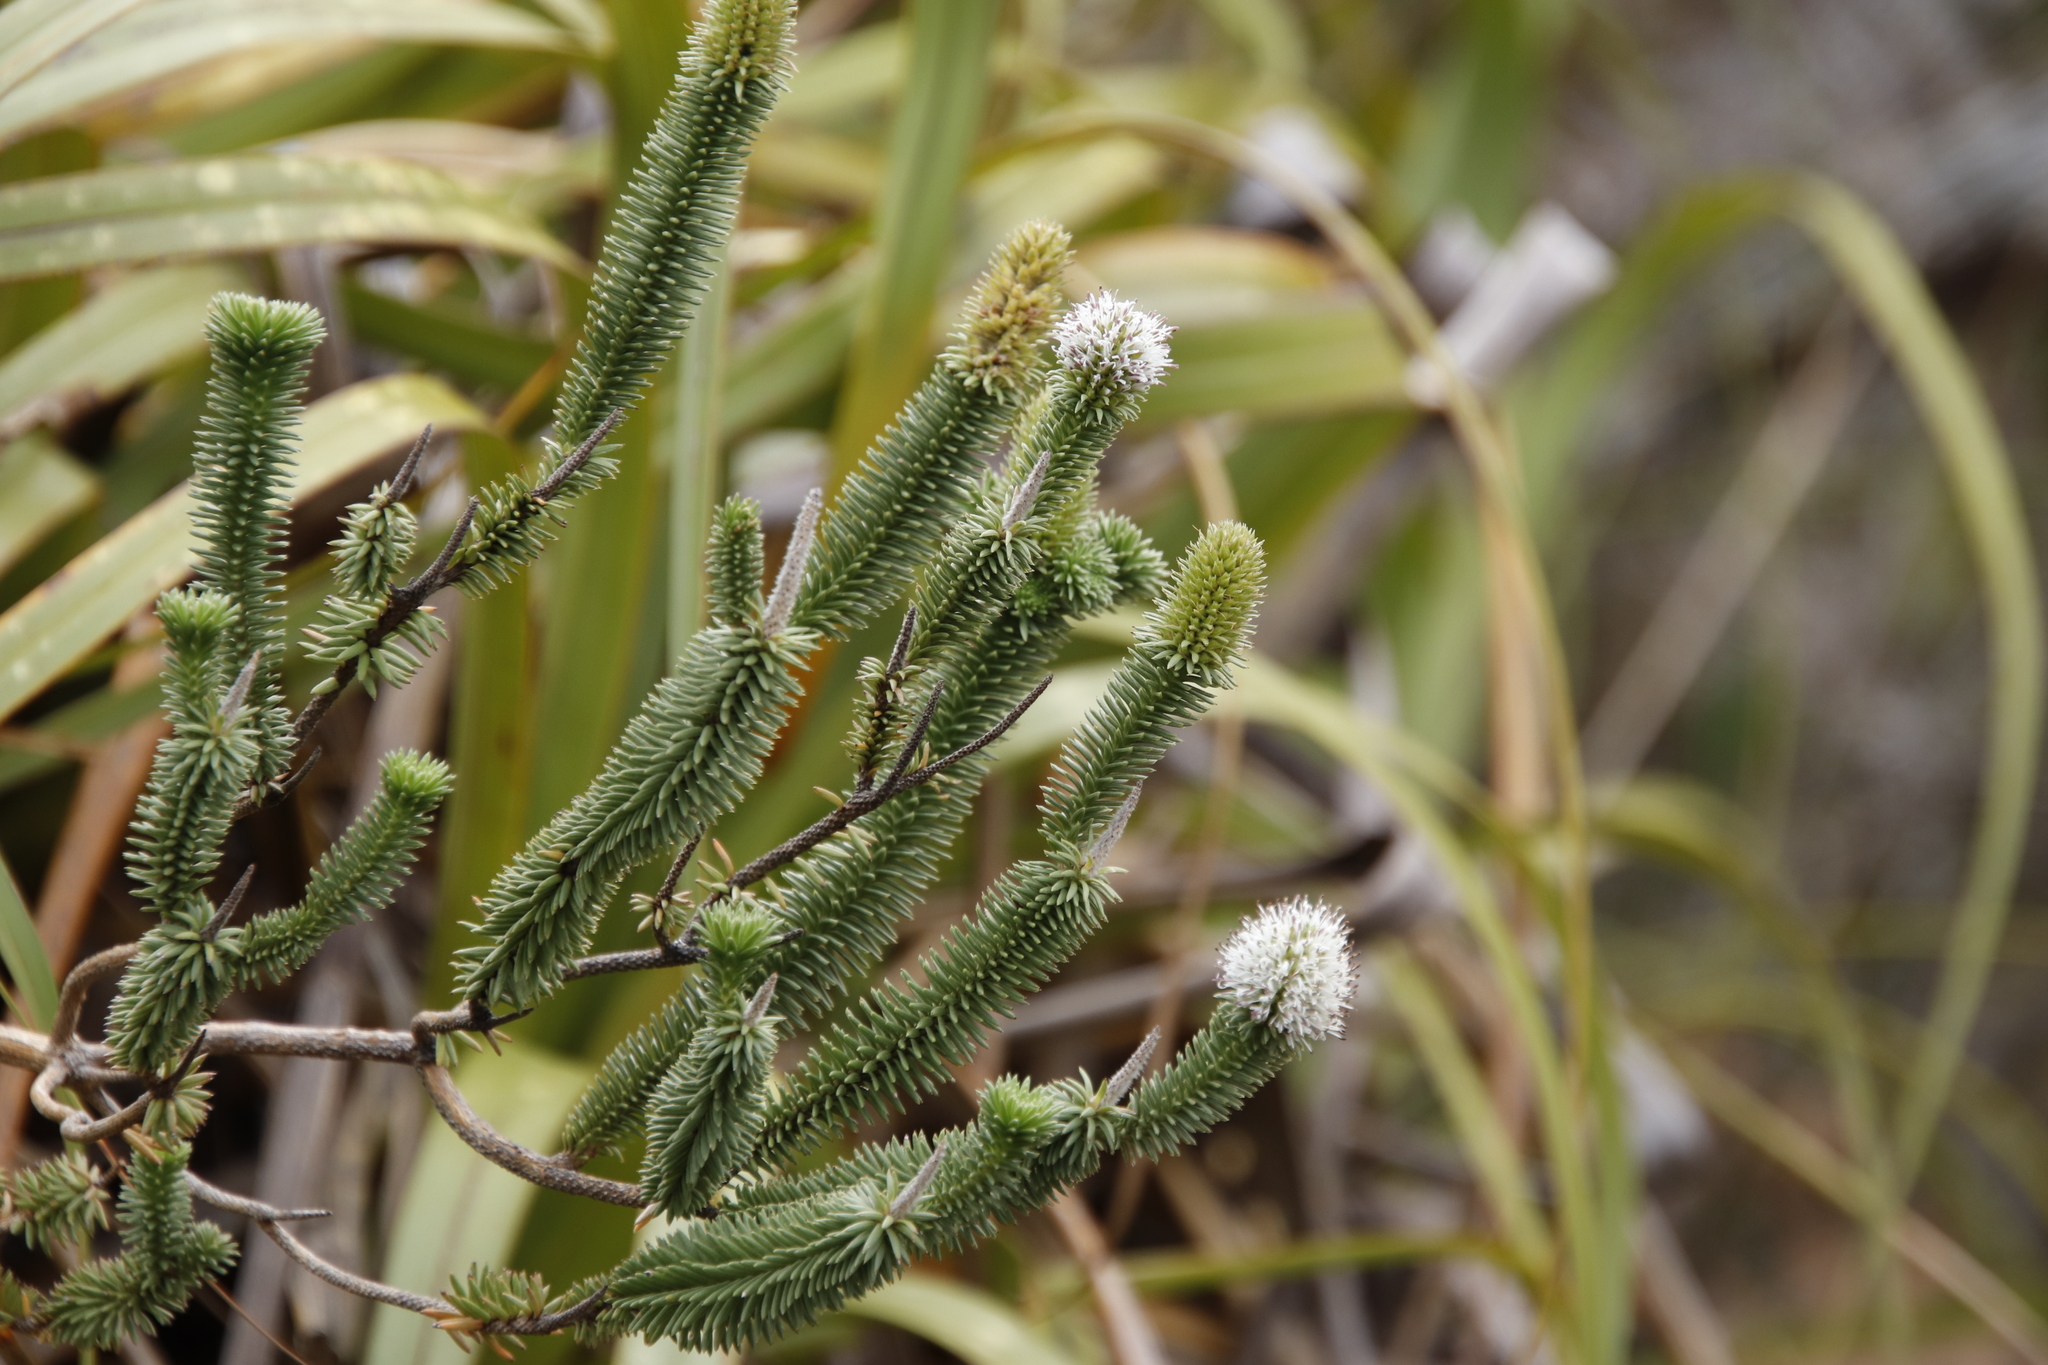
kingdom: Plantae
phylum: Tracheophyta
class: Magnoliopsida
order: Lamiales
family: Stilbaceae
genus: Stilbe
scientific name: Stilbe vestita
